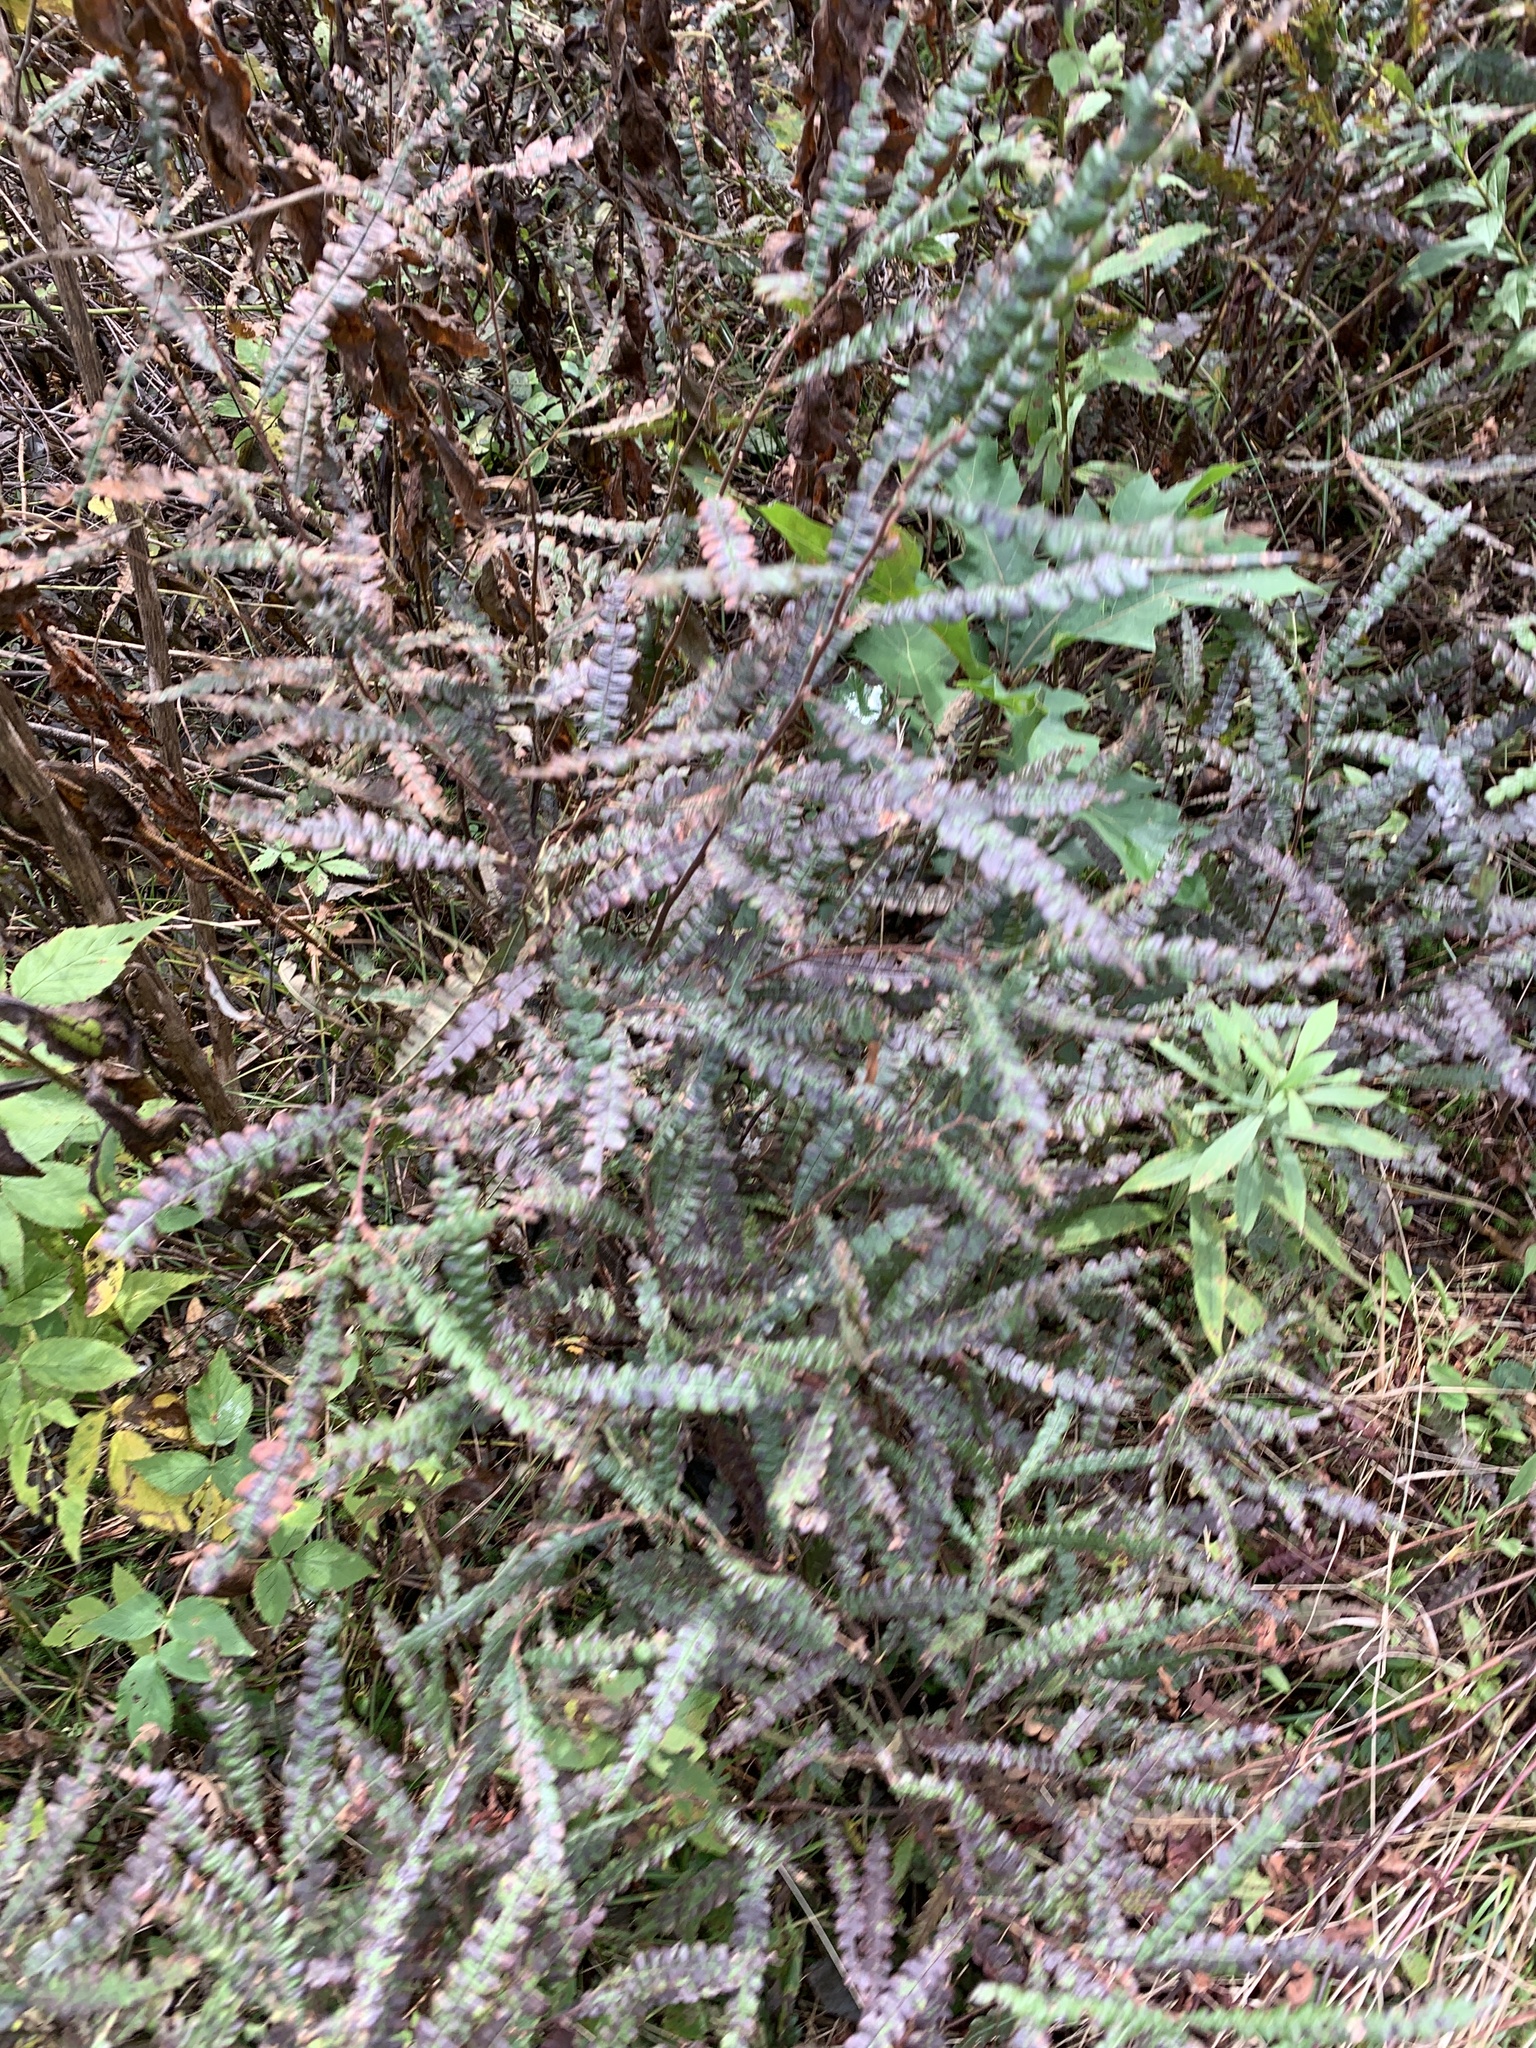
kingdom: Plantae
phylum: Tracheophyta
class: Magnoliopsida
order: Fagales
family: Myricaceae
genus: Comptonia
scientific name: Comptonia peregrina
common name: Sweet-fern
